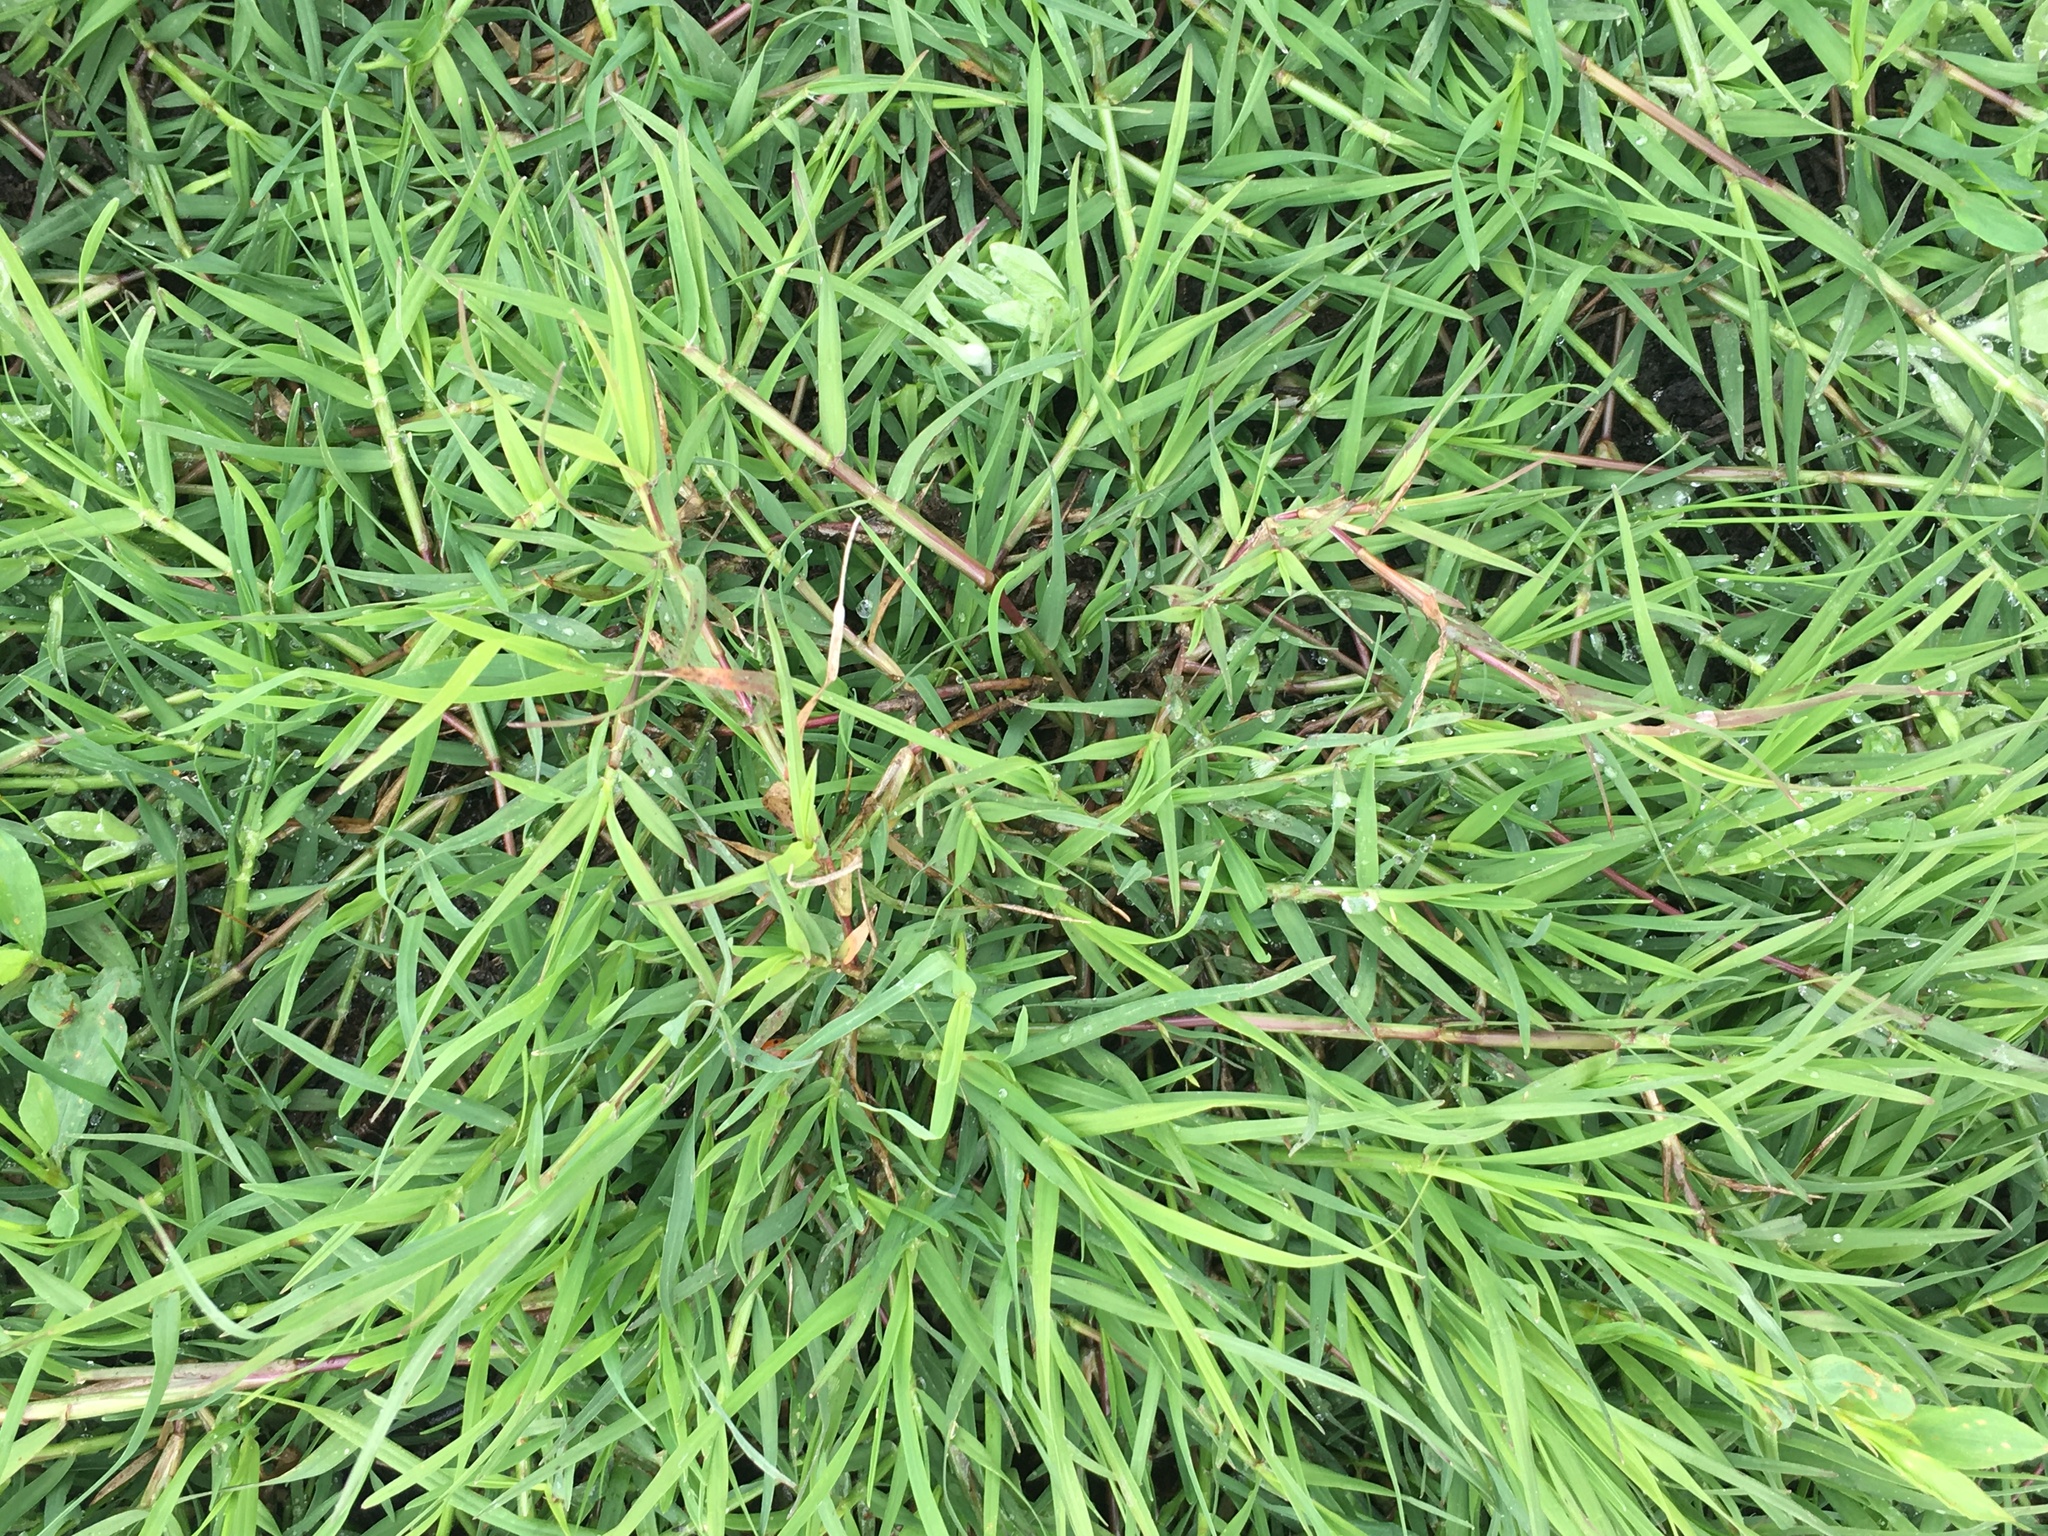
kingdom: Plantae
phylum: Tracheophyta
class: Liliopsida
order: Poales
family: Poaceae
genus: Cynodon
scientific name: Cynodon dactylon
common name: Bermuda grass
